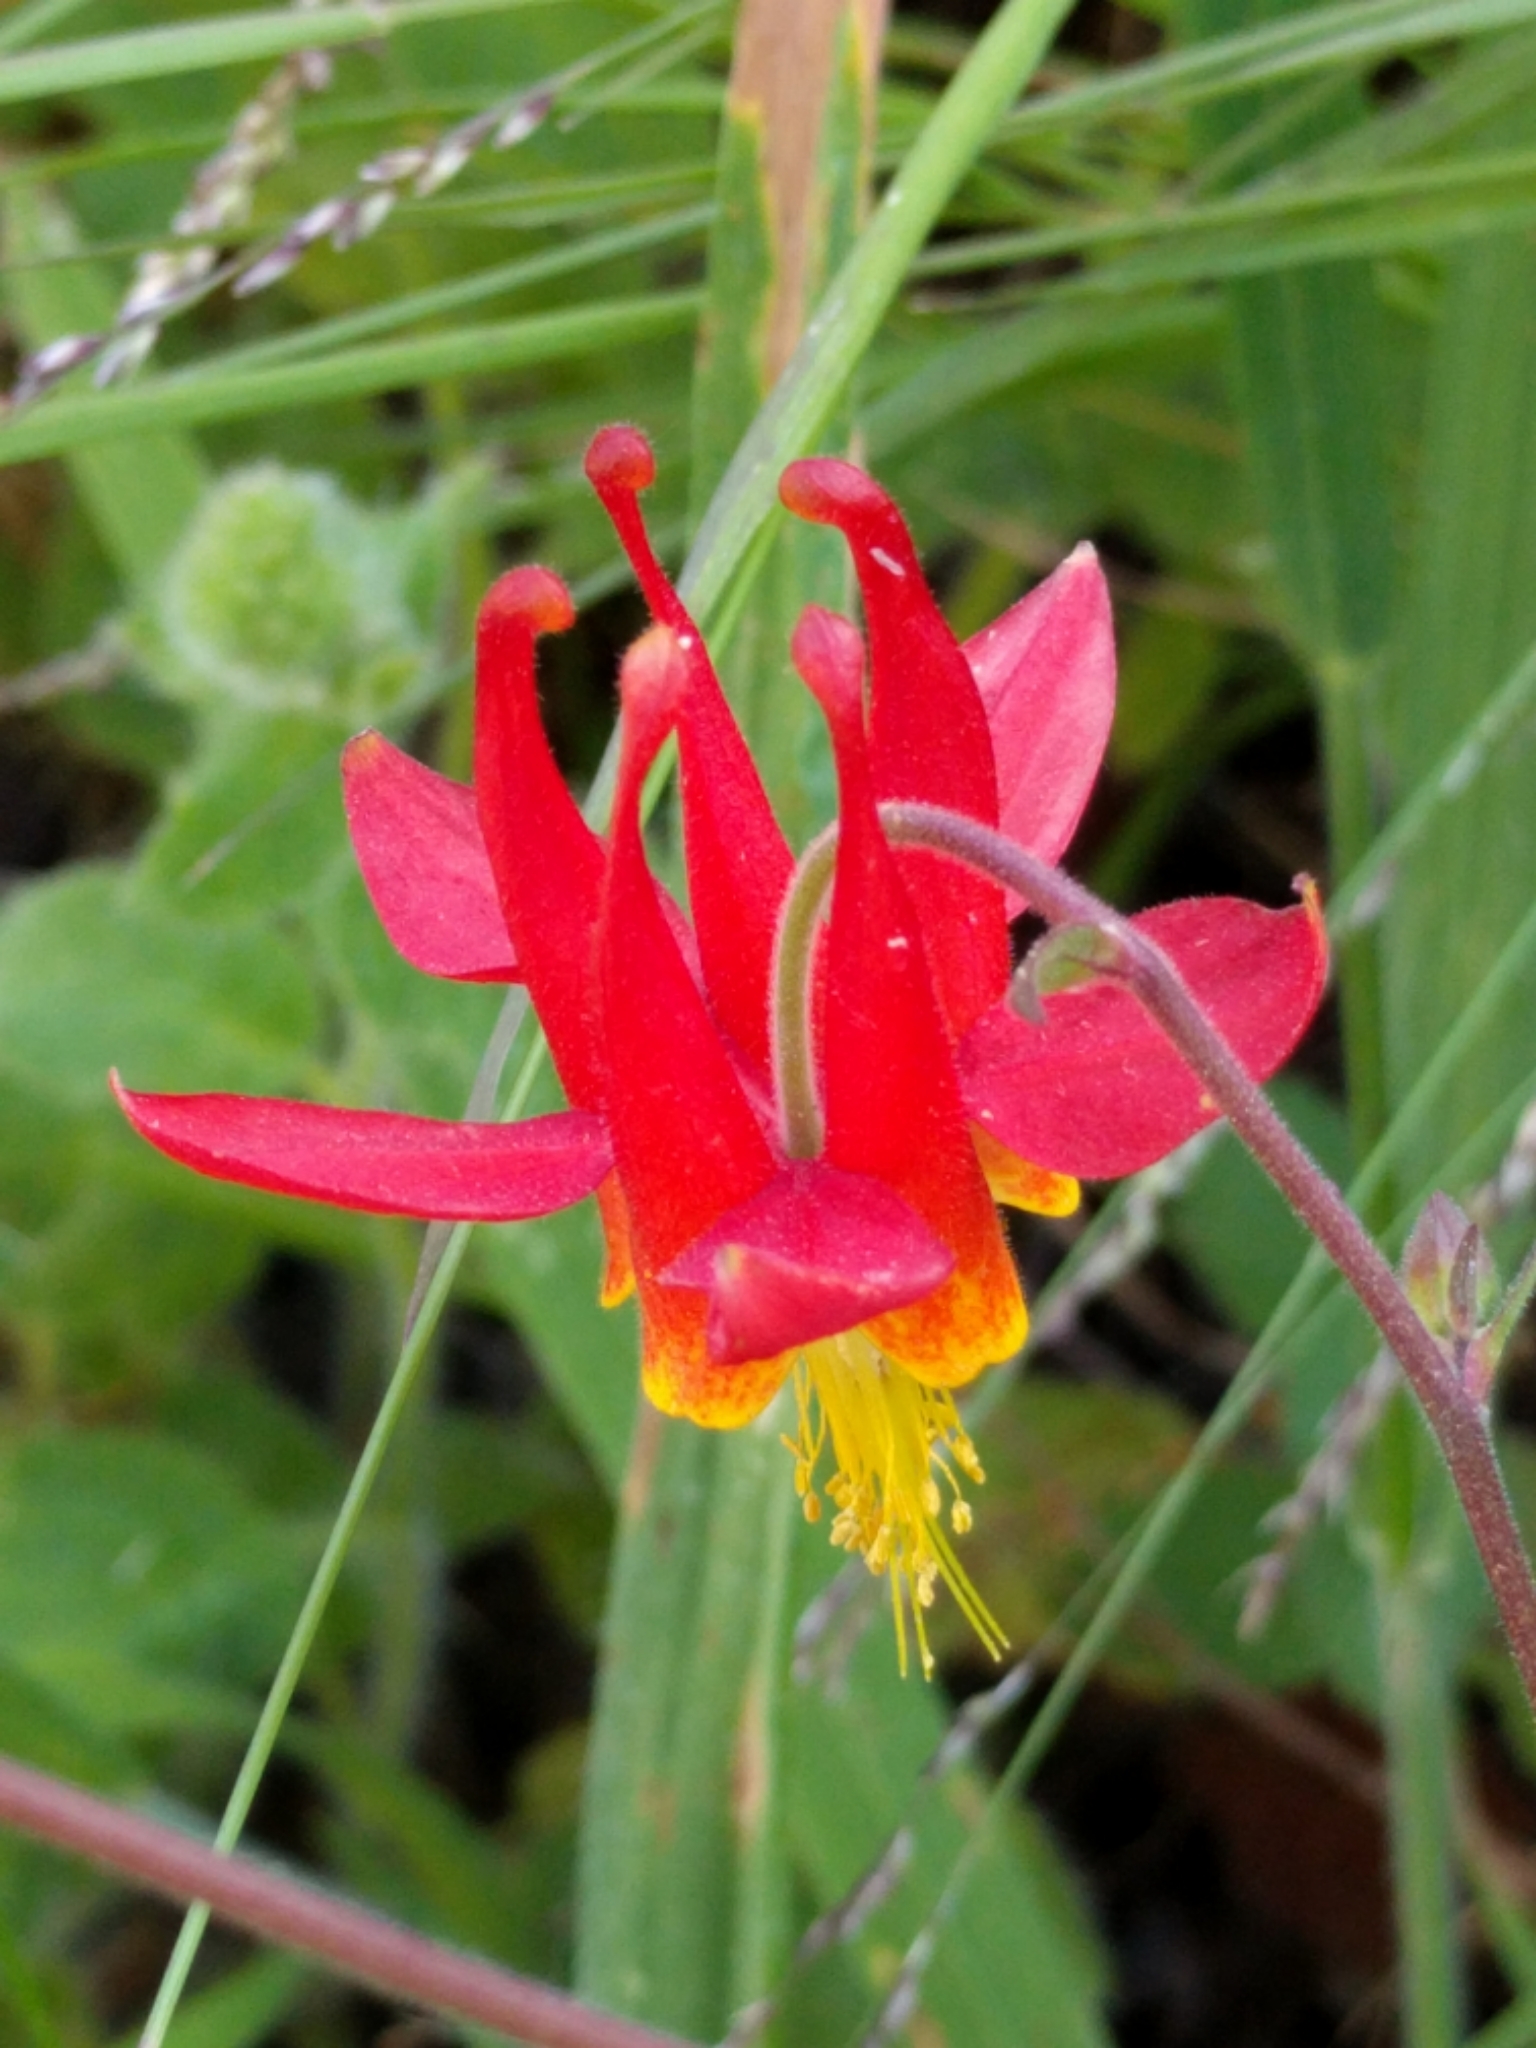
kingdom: Plantae
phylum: Tracheophyta
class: Magnoliopsida
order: Ranunculales
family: Ranunculaceae
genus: Aquilegia
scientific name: Aquilegia formosa
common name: Sitka columbine
